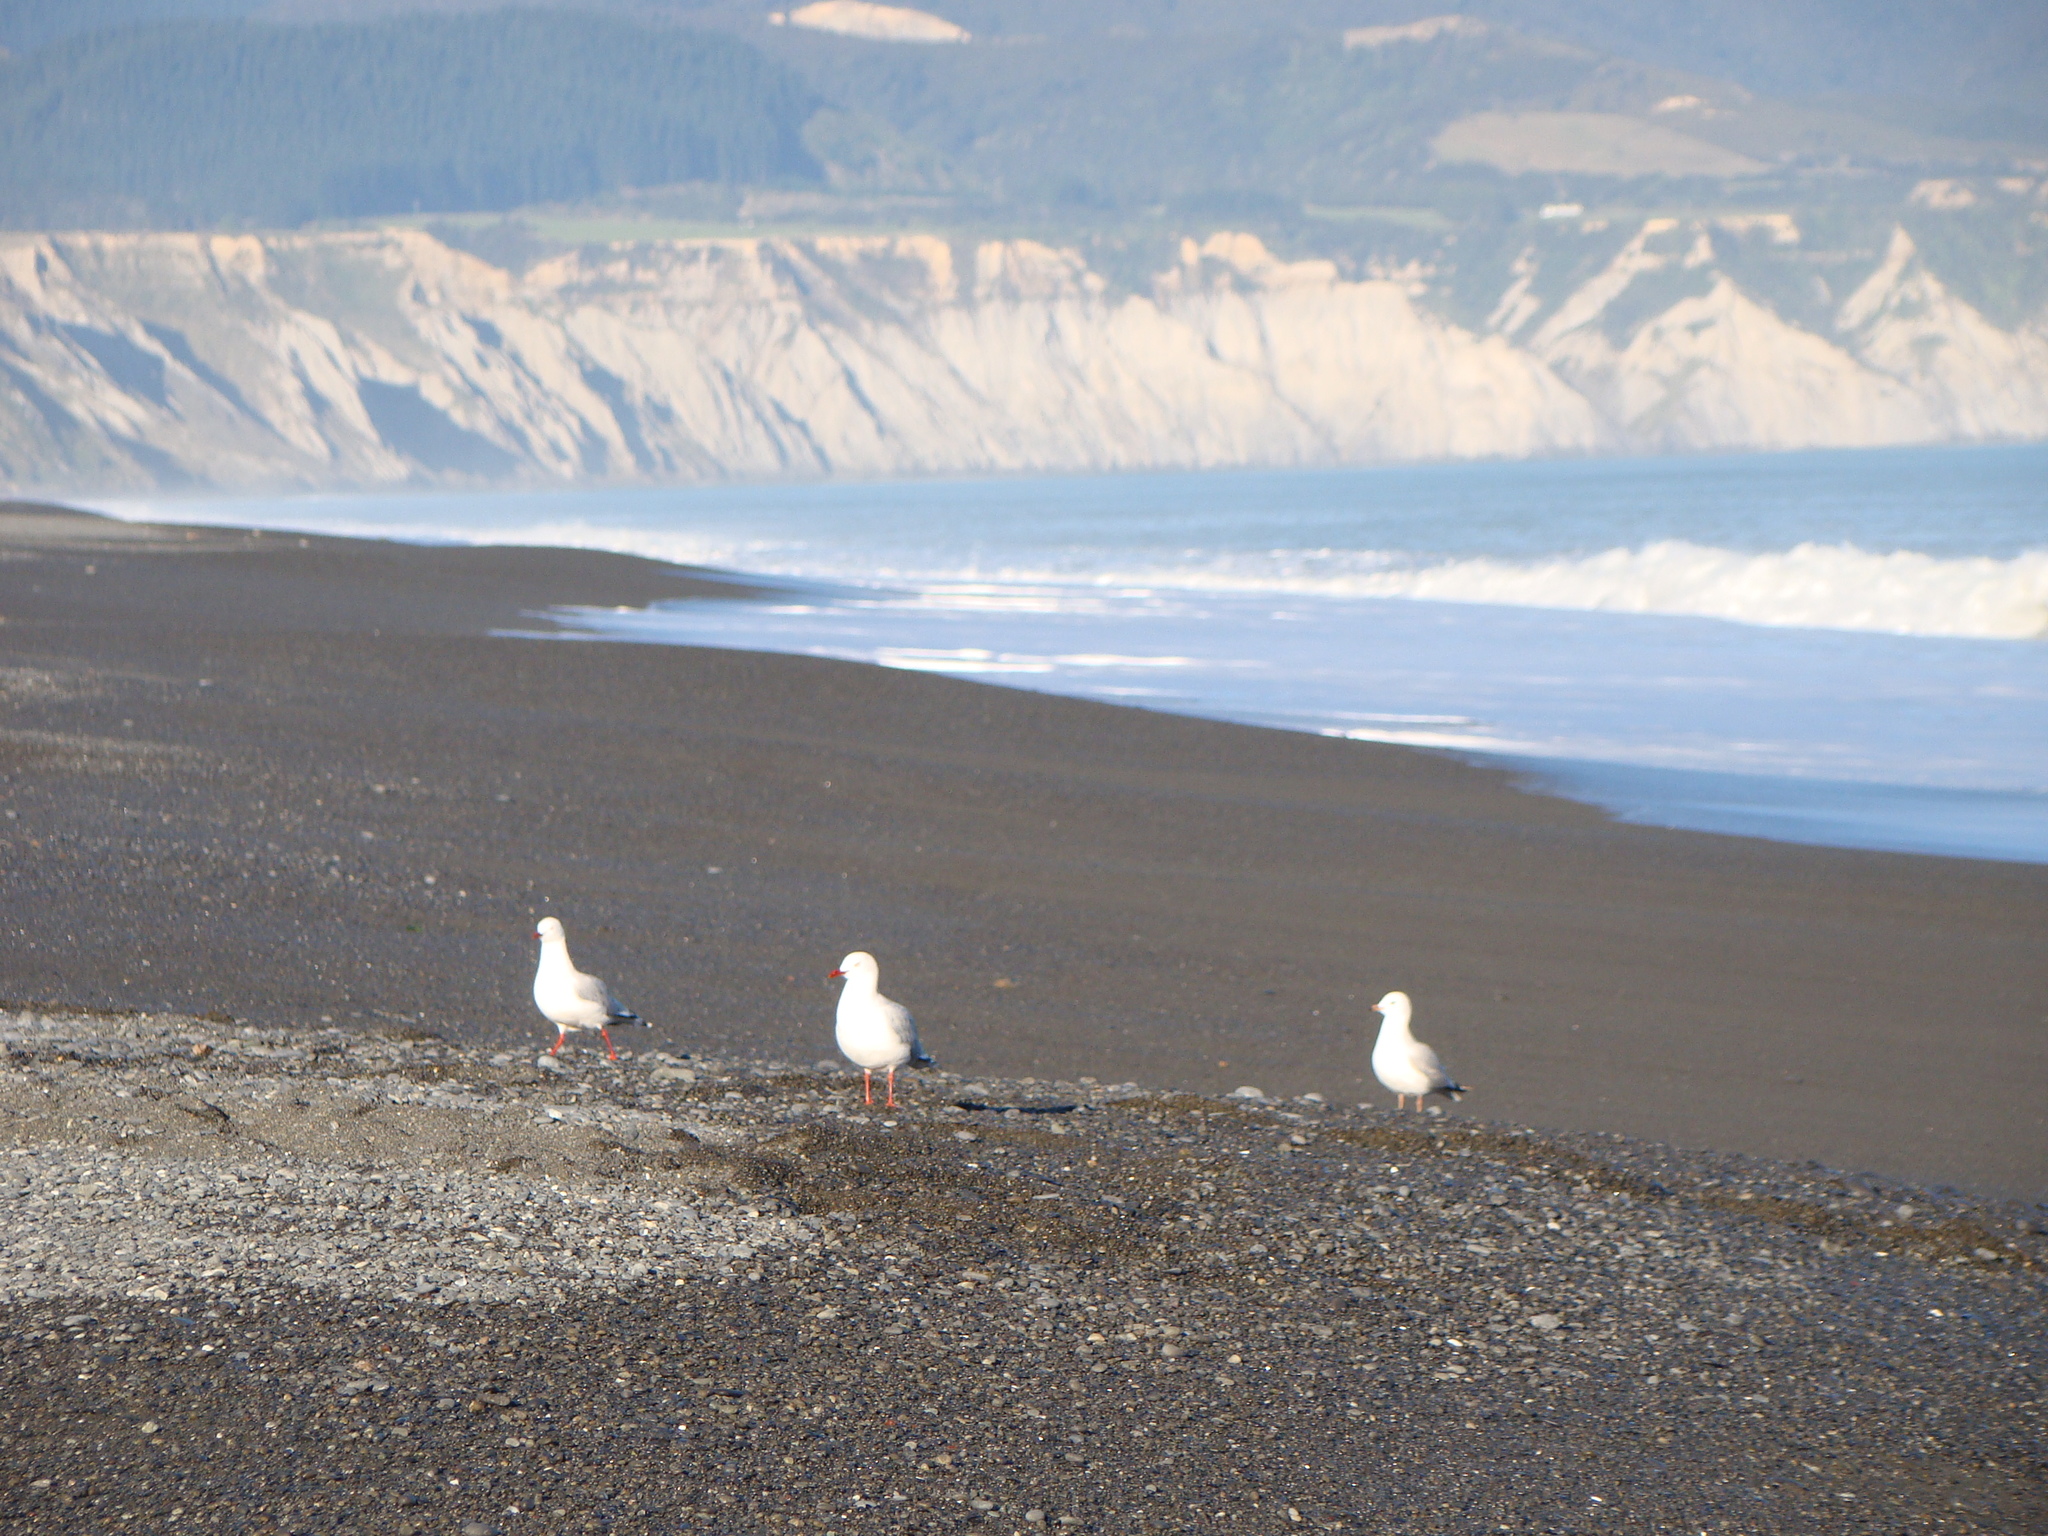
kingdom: Animalia
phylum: Chordata
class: Aves
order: Charadriiformes
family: Laridae
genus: Chroicocephalus
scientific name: Chroicocephalus novaehollandiae
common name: Silver gull
